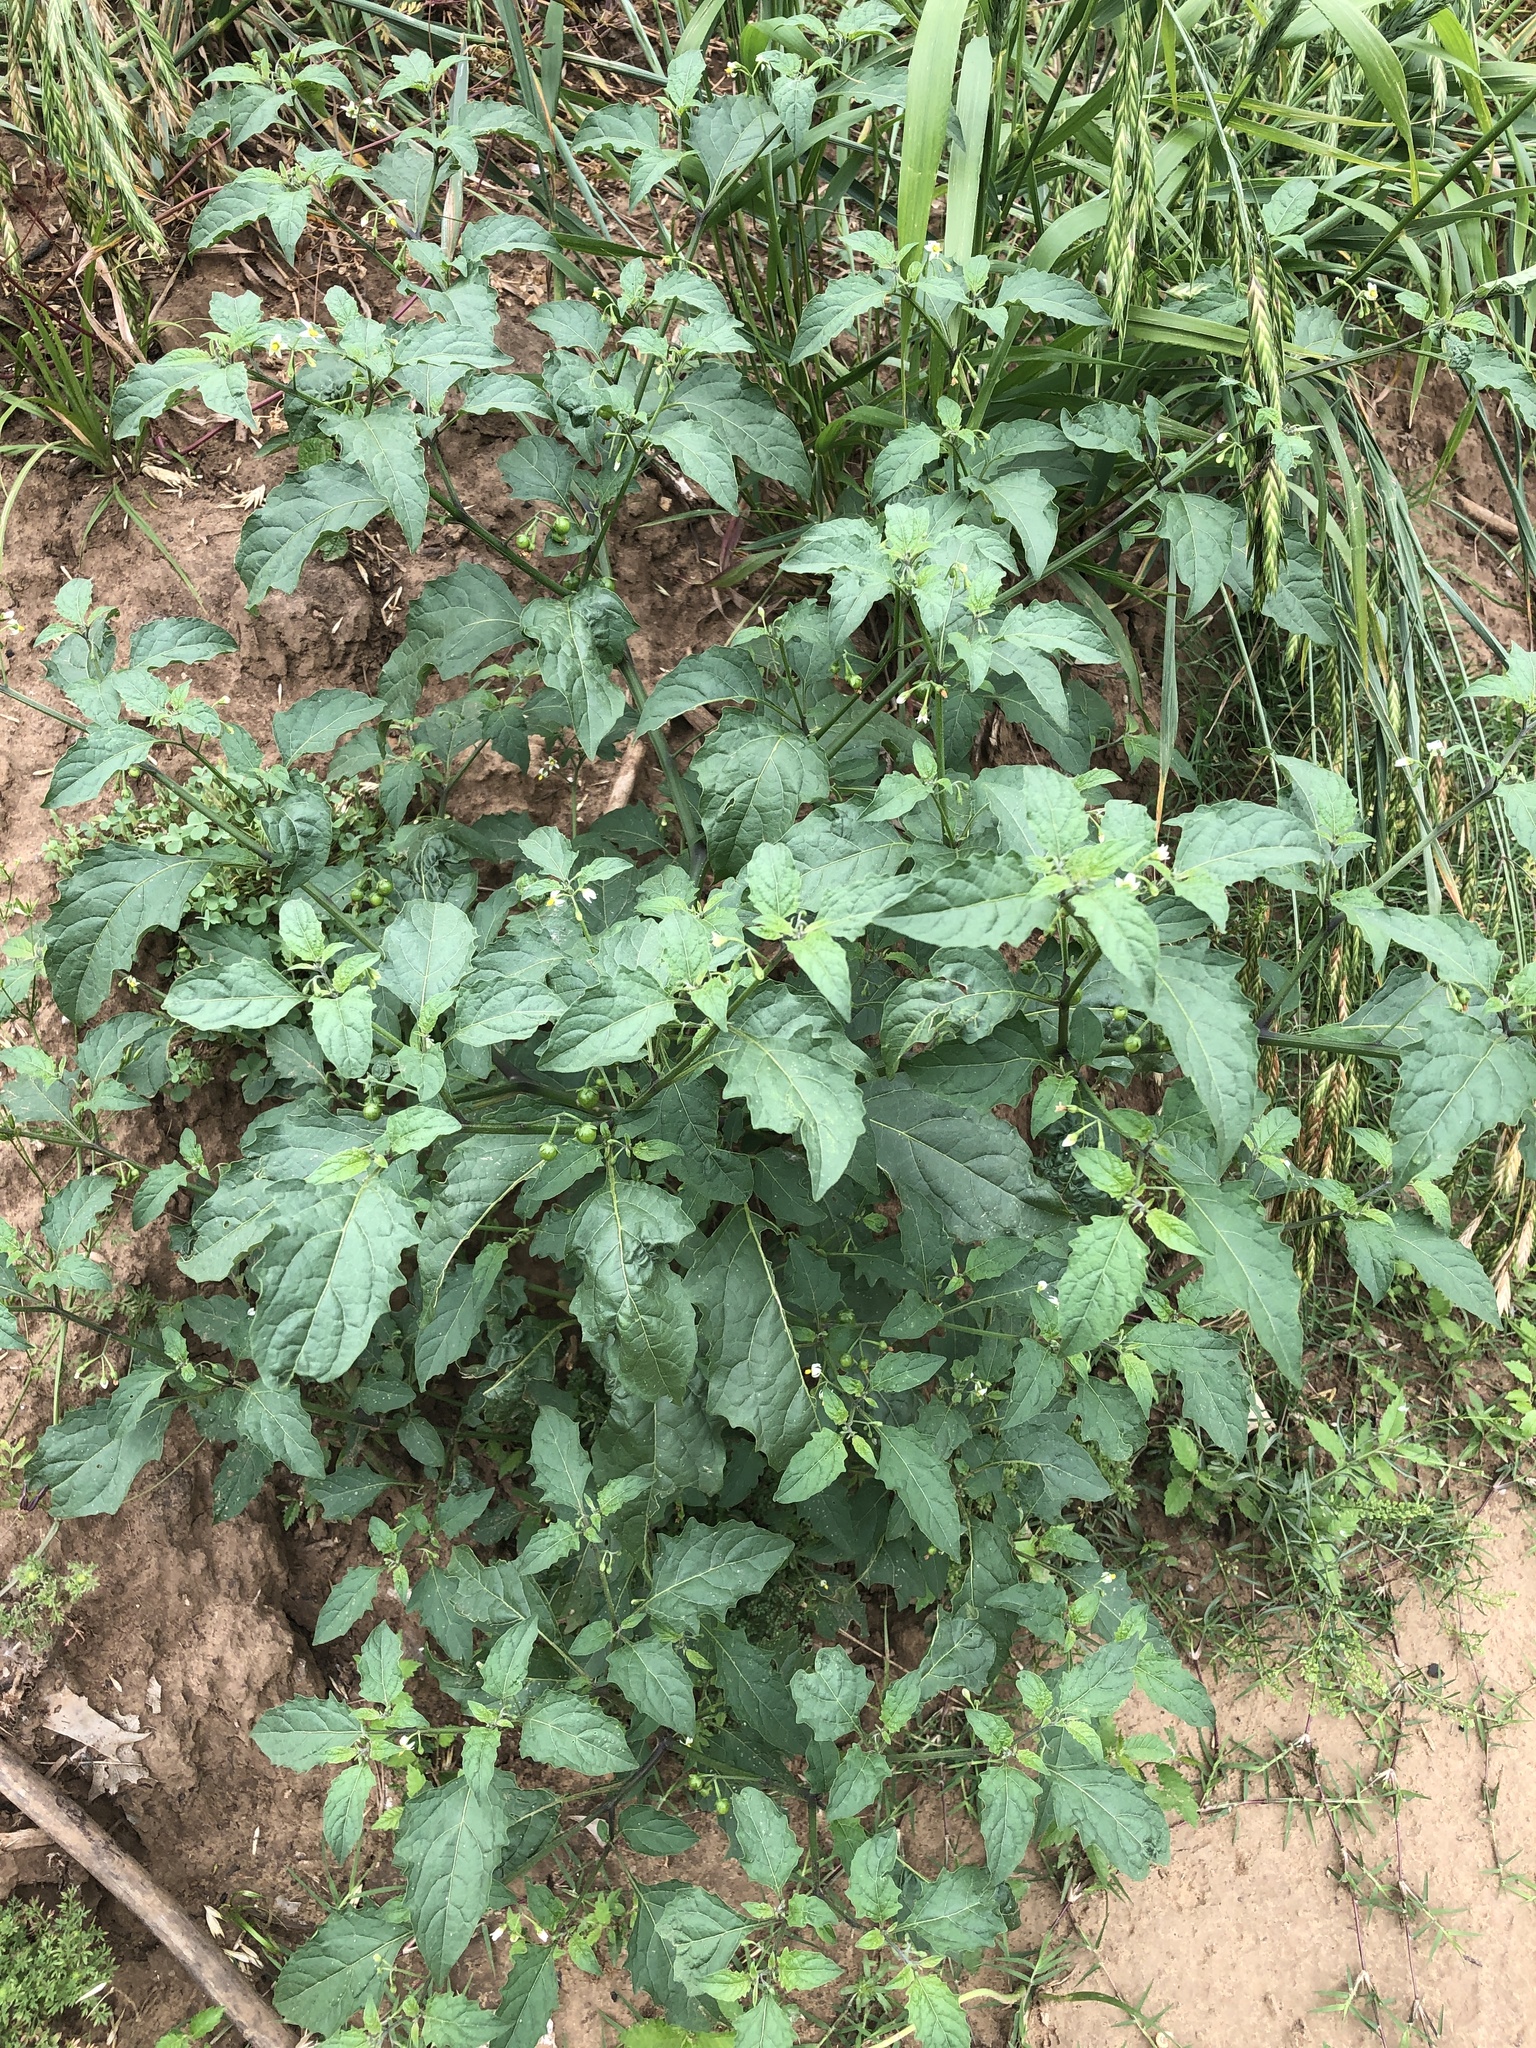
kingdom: Plantae
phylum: Tracheophyta
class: Magnoliopsida
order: Solanales
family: Solanaceae
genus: Solanum
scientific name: Solanum emulans
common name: Eastern black nightshade
